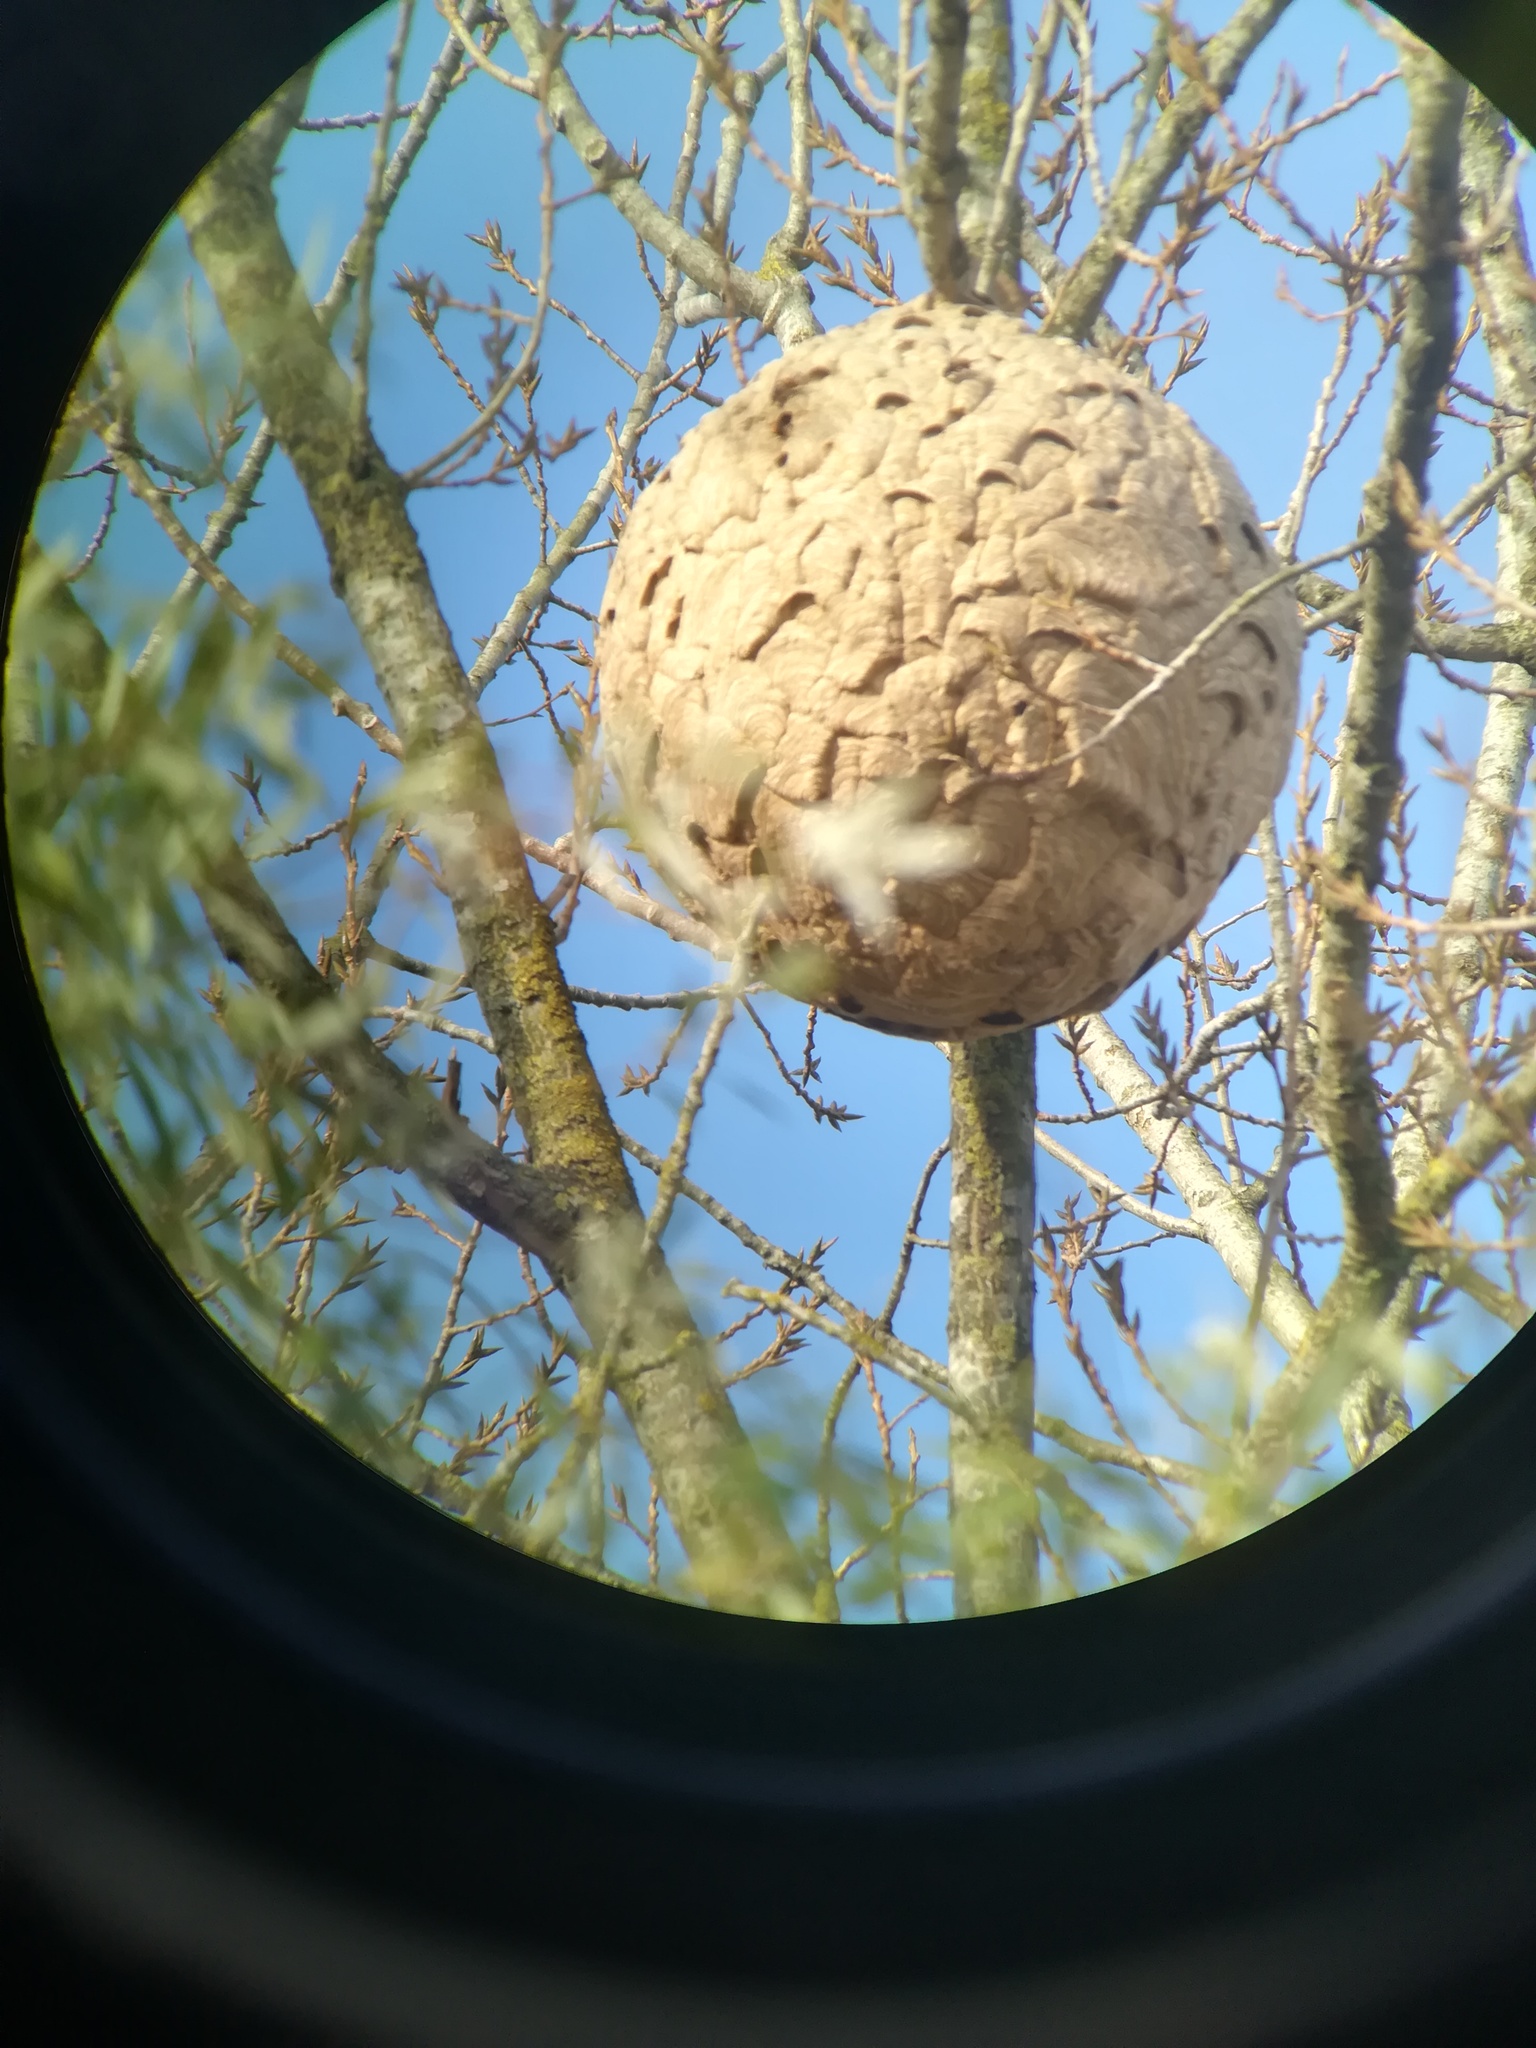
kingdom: Animalia
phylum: Arthropoda
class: Insecta
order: Hymenoptera
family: Vespidae
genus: Vespa
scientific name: Vespa velutina
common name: Asian hornet
